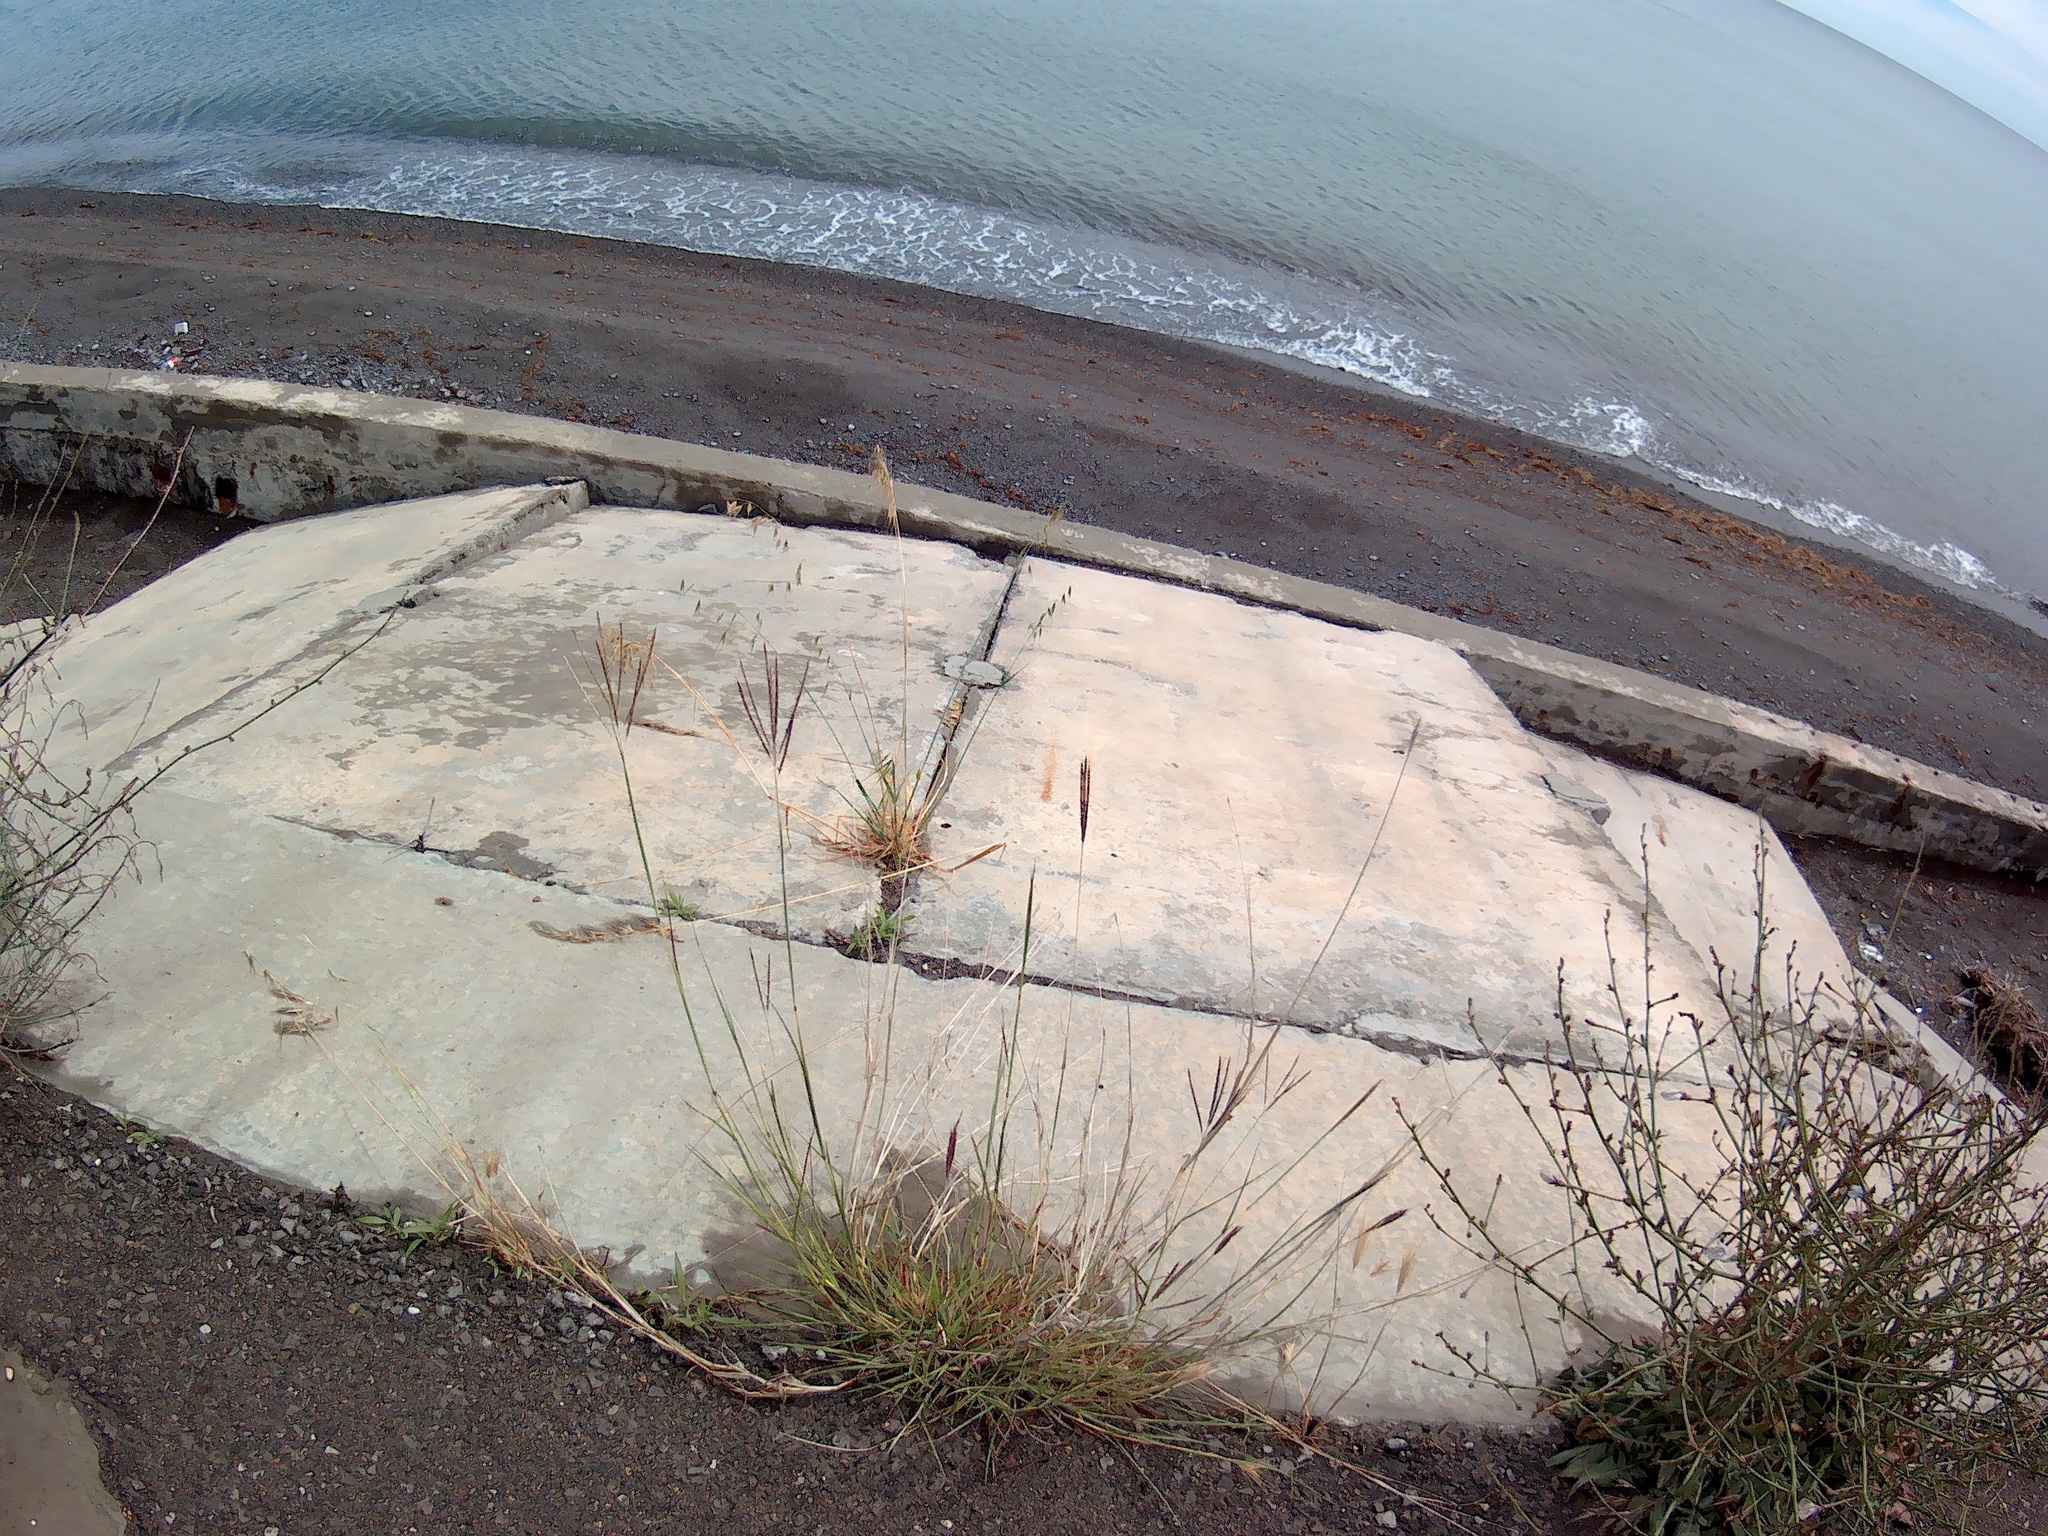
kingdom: Plantae
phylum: Tracheophyta
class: Liliopsida
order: Poales
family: Poaceae
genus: Bothriochloa
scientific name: Bothriochloa ischaemum
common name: Yellow bluestem
